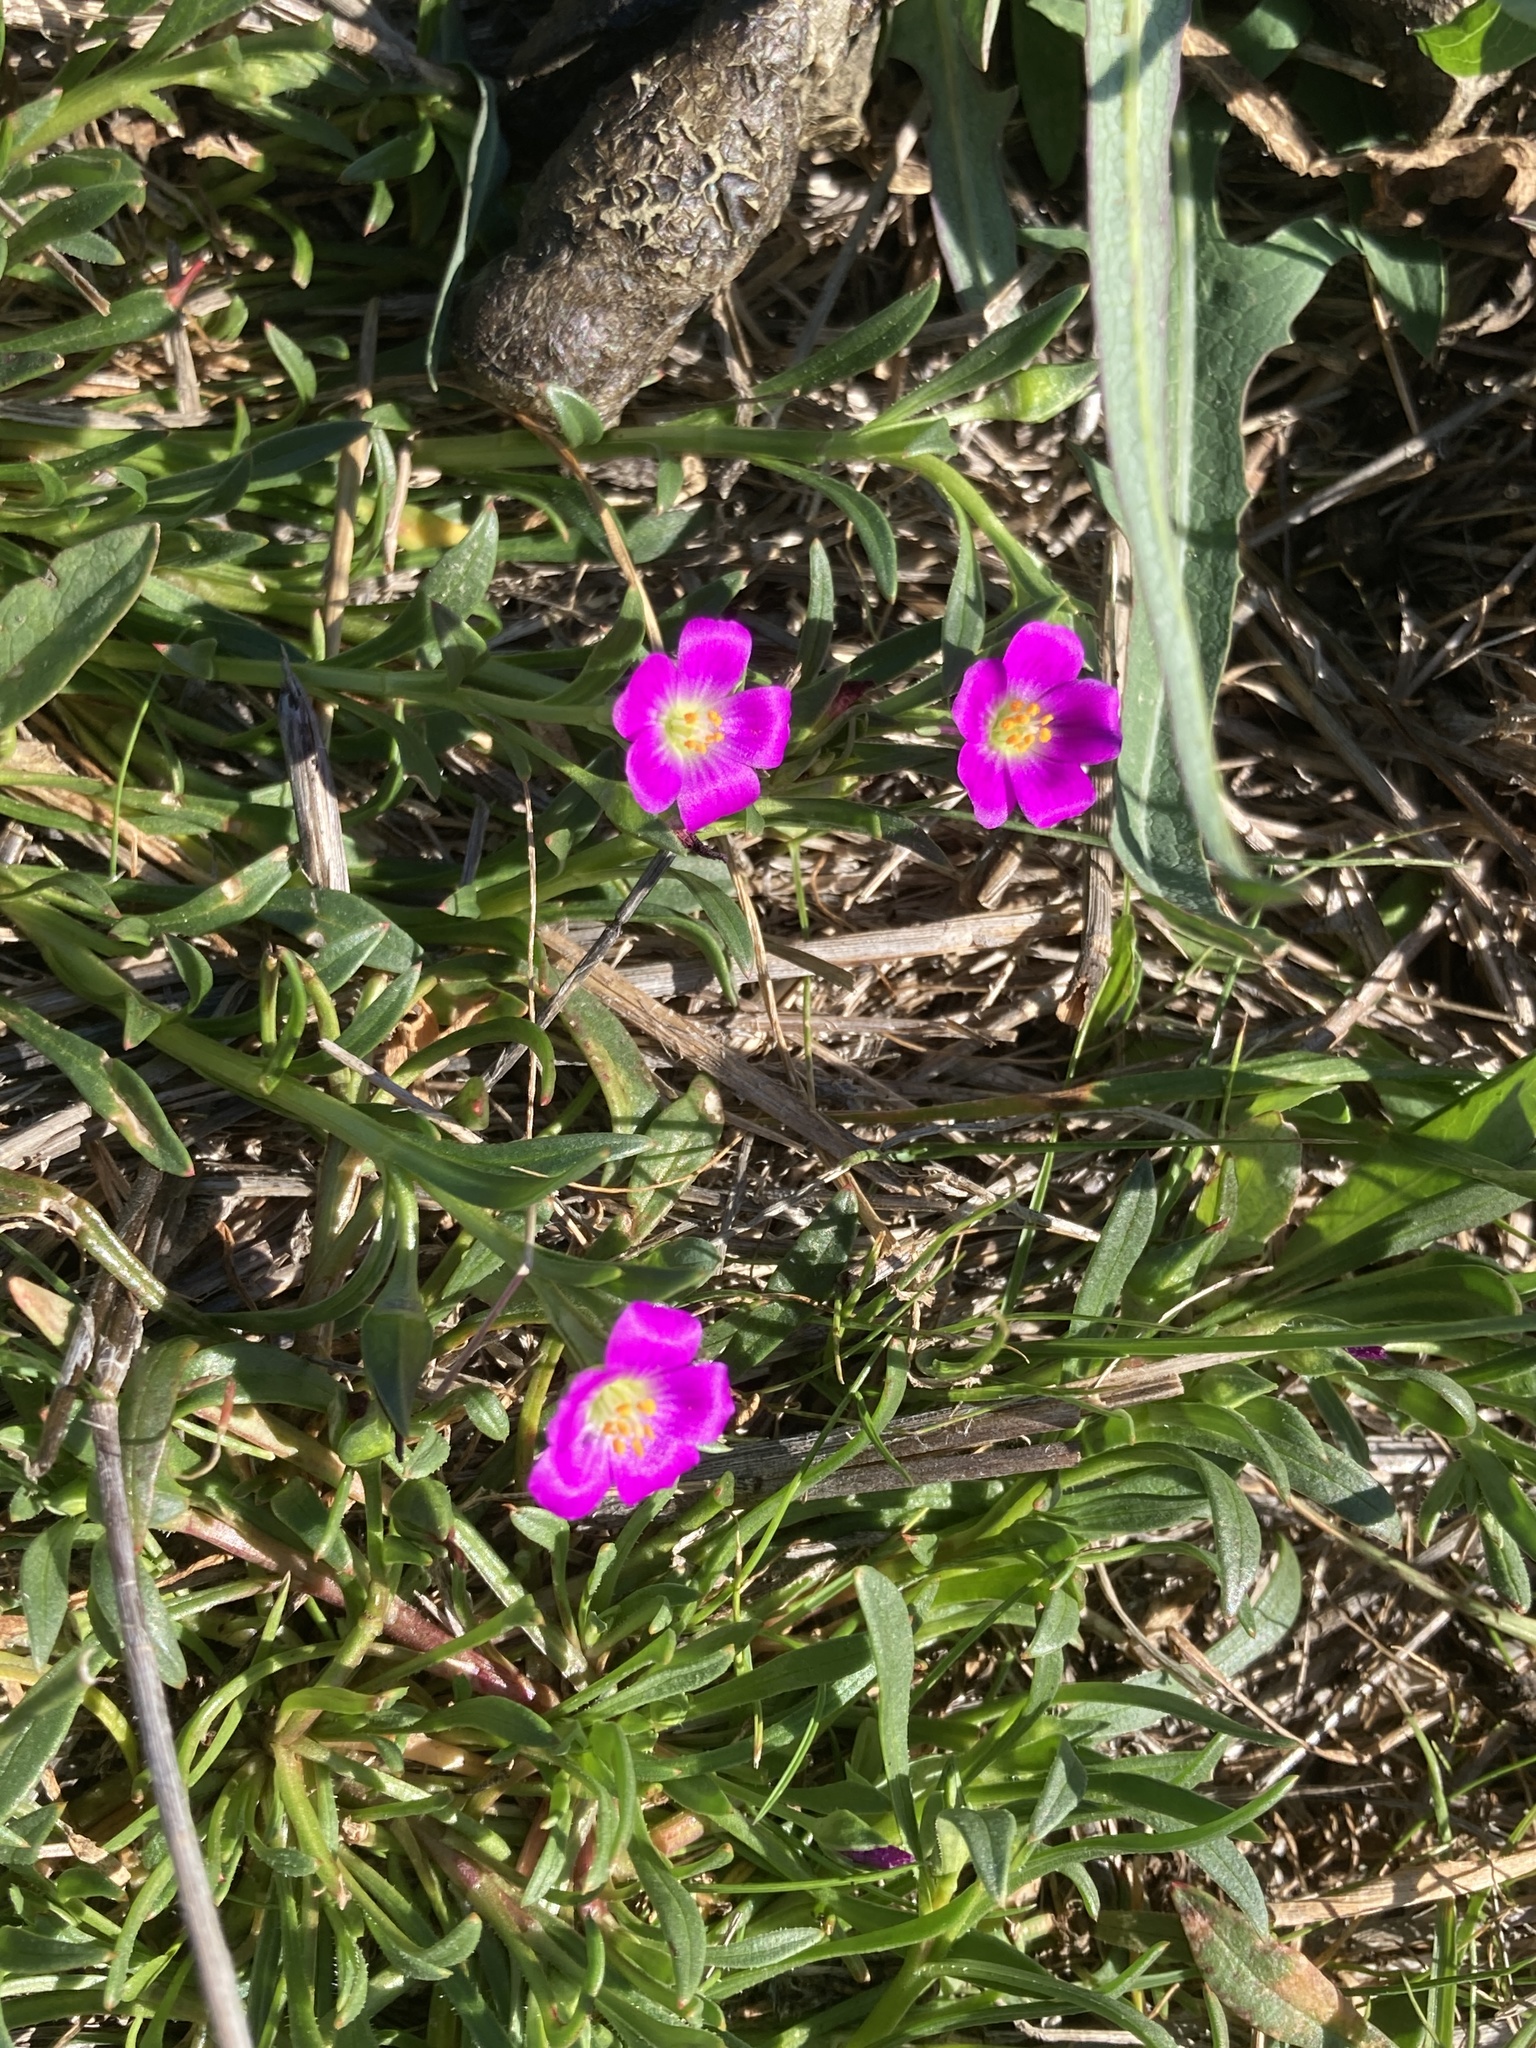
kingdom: Plantae
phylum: Tracheophyta
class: Magnoliopsida
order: Caryophyllales
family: Montiaceae
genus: Calandrinia
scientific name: Calandrinia menziesii
